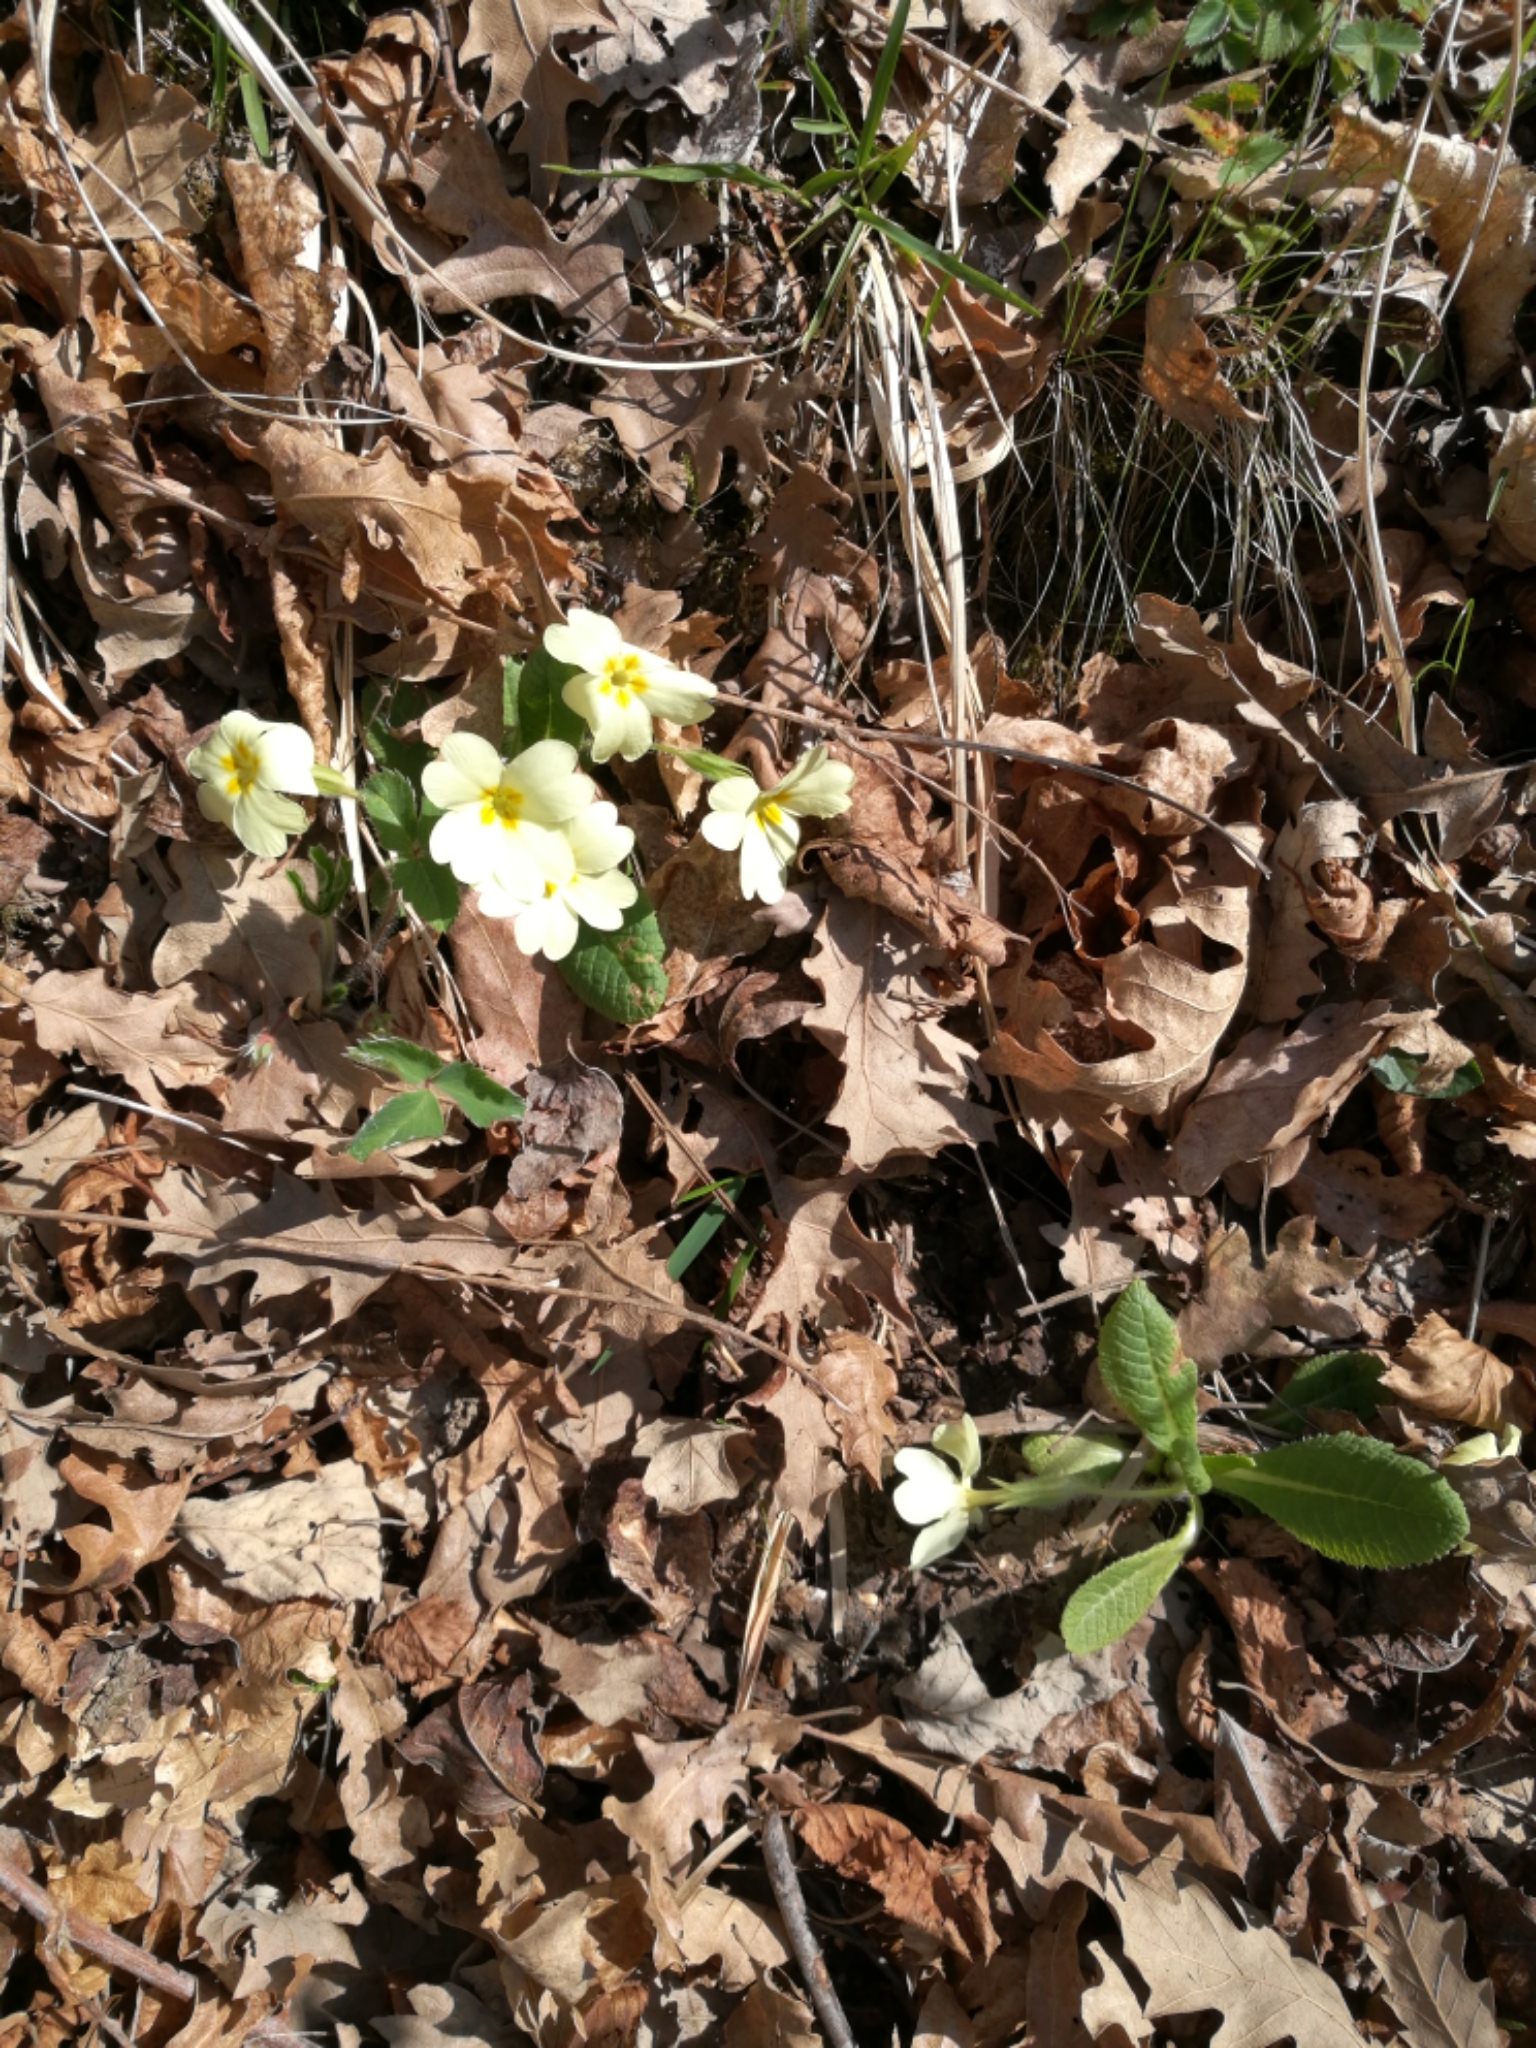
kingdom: Plantae
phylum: Tracheophyta
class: Magnoliopsida
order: Ericales
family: Primulaceae
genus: Primula
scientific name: Primula vulgaris
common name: Primrose
